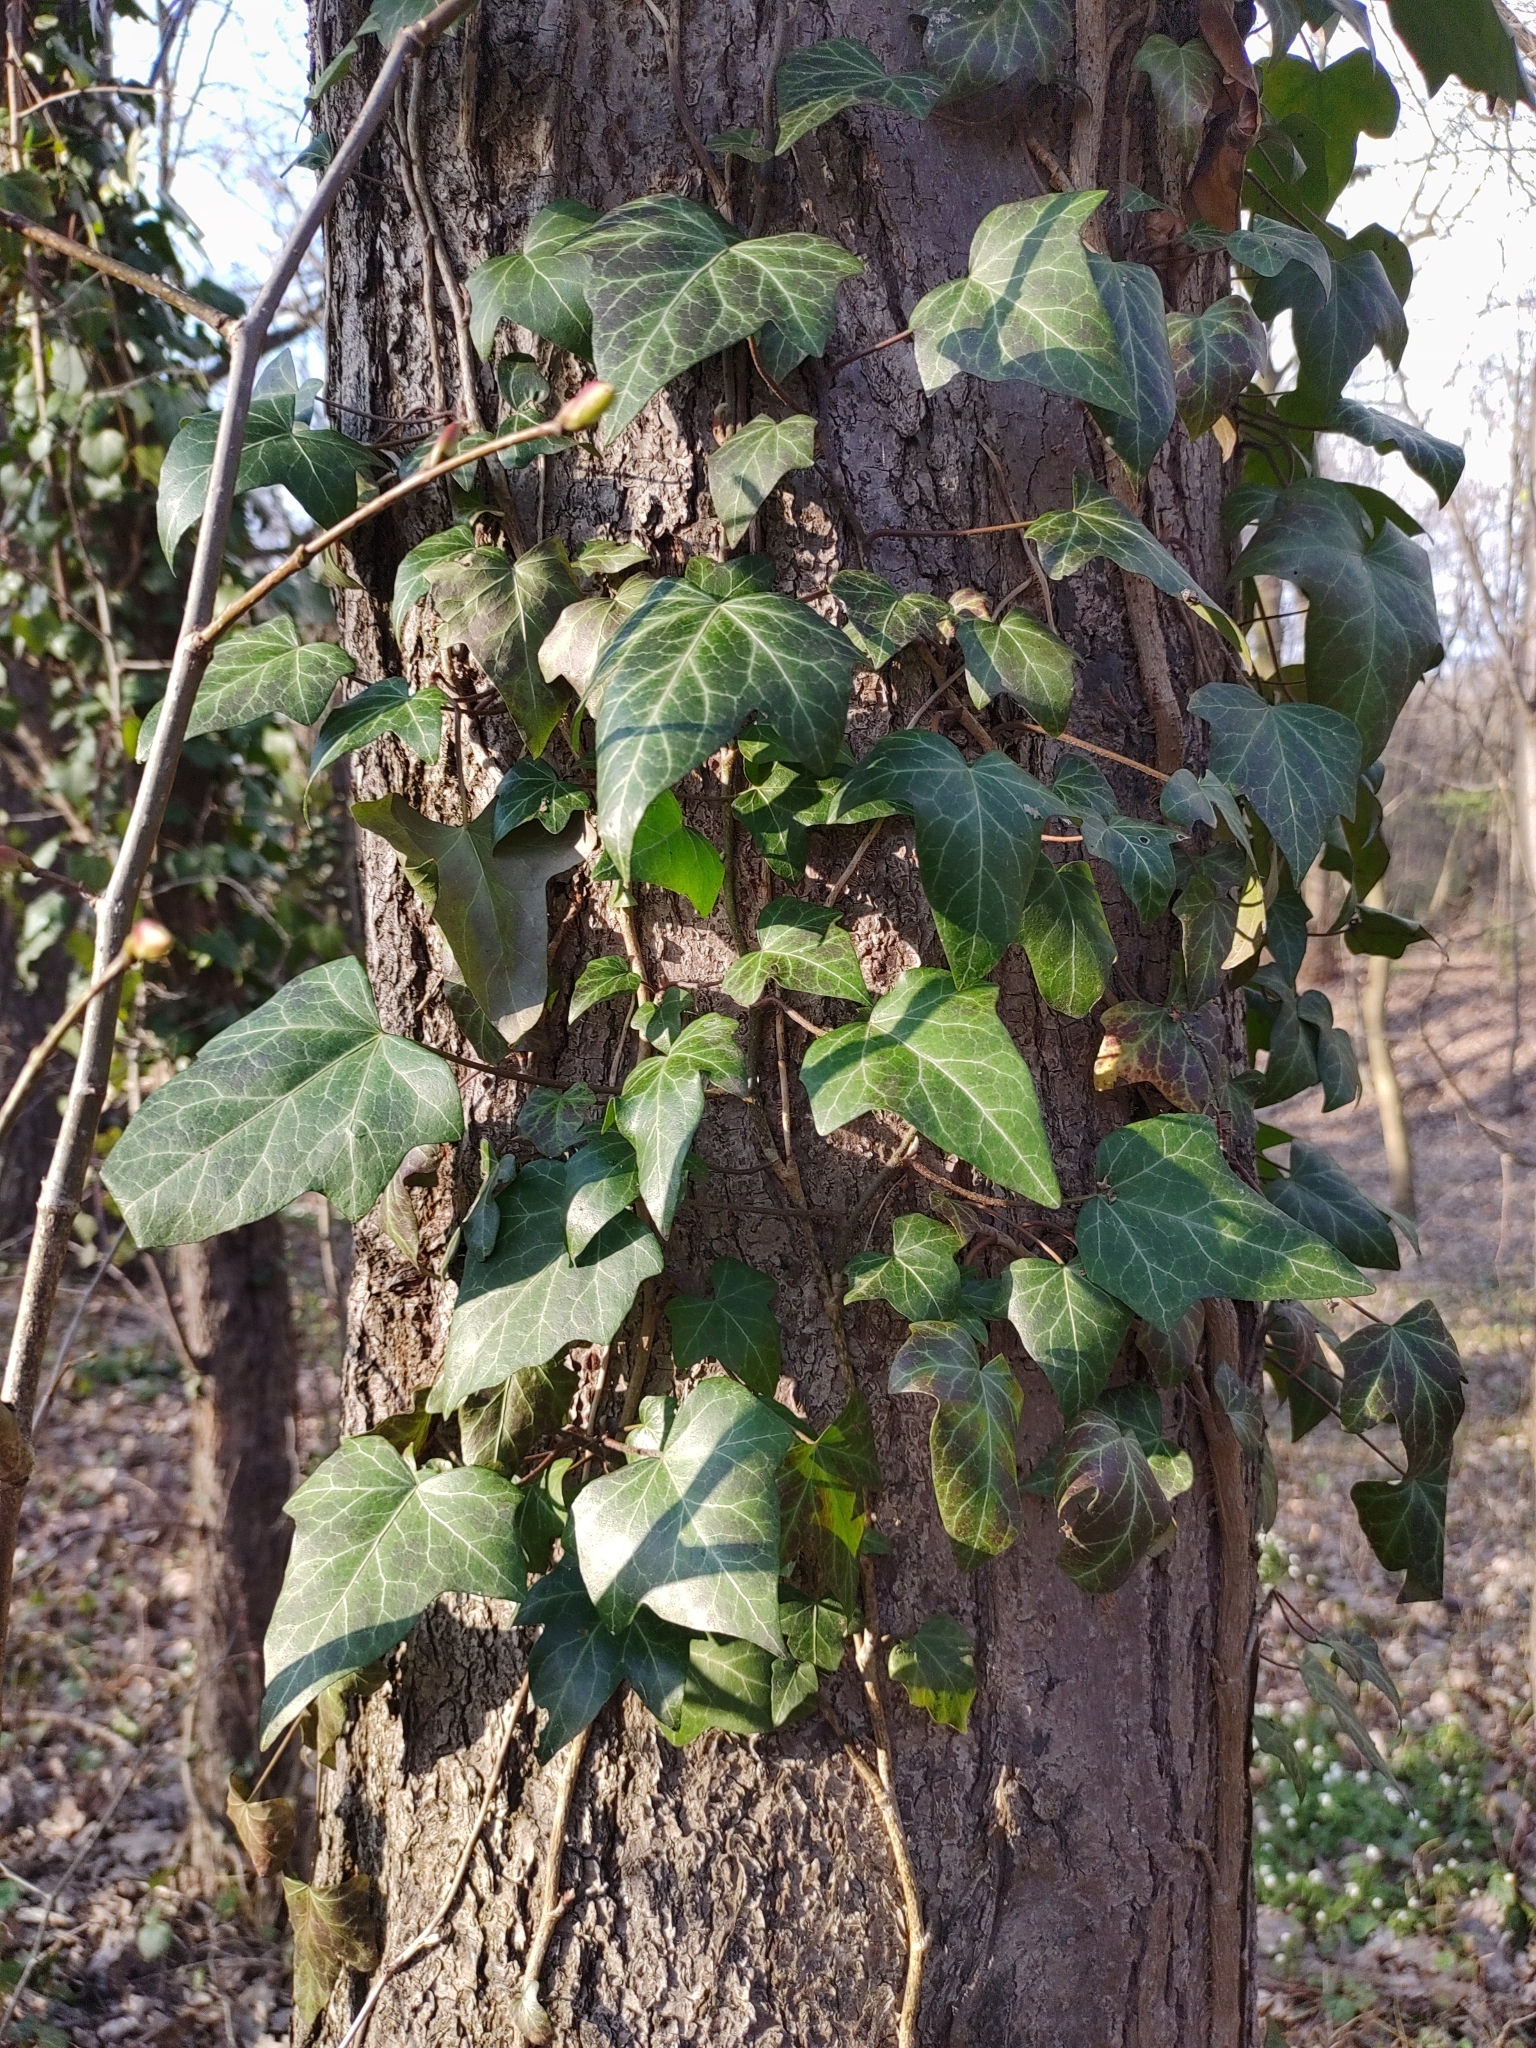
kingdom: Plantae
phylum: Tracheophyta
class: Magnoliopsida
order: Apiales
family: Araliaceae
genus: Hedera
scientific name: Hedera helix
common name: Ivy
